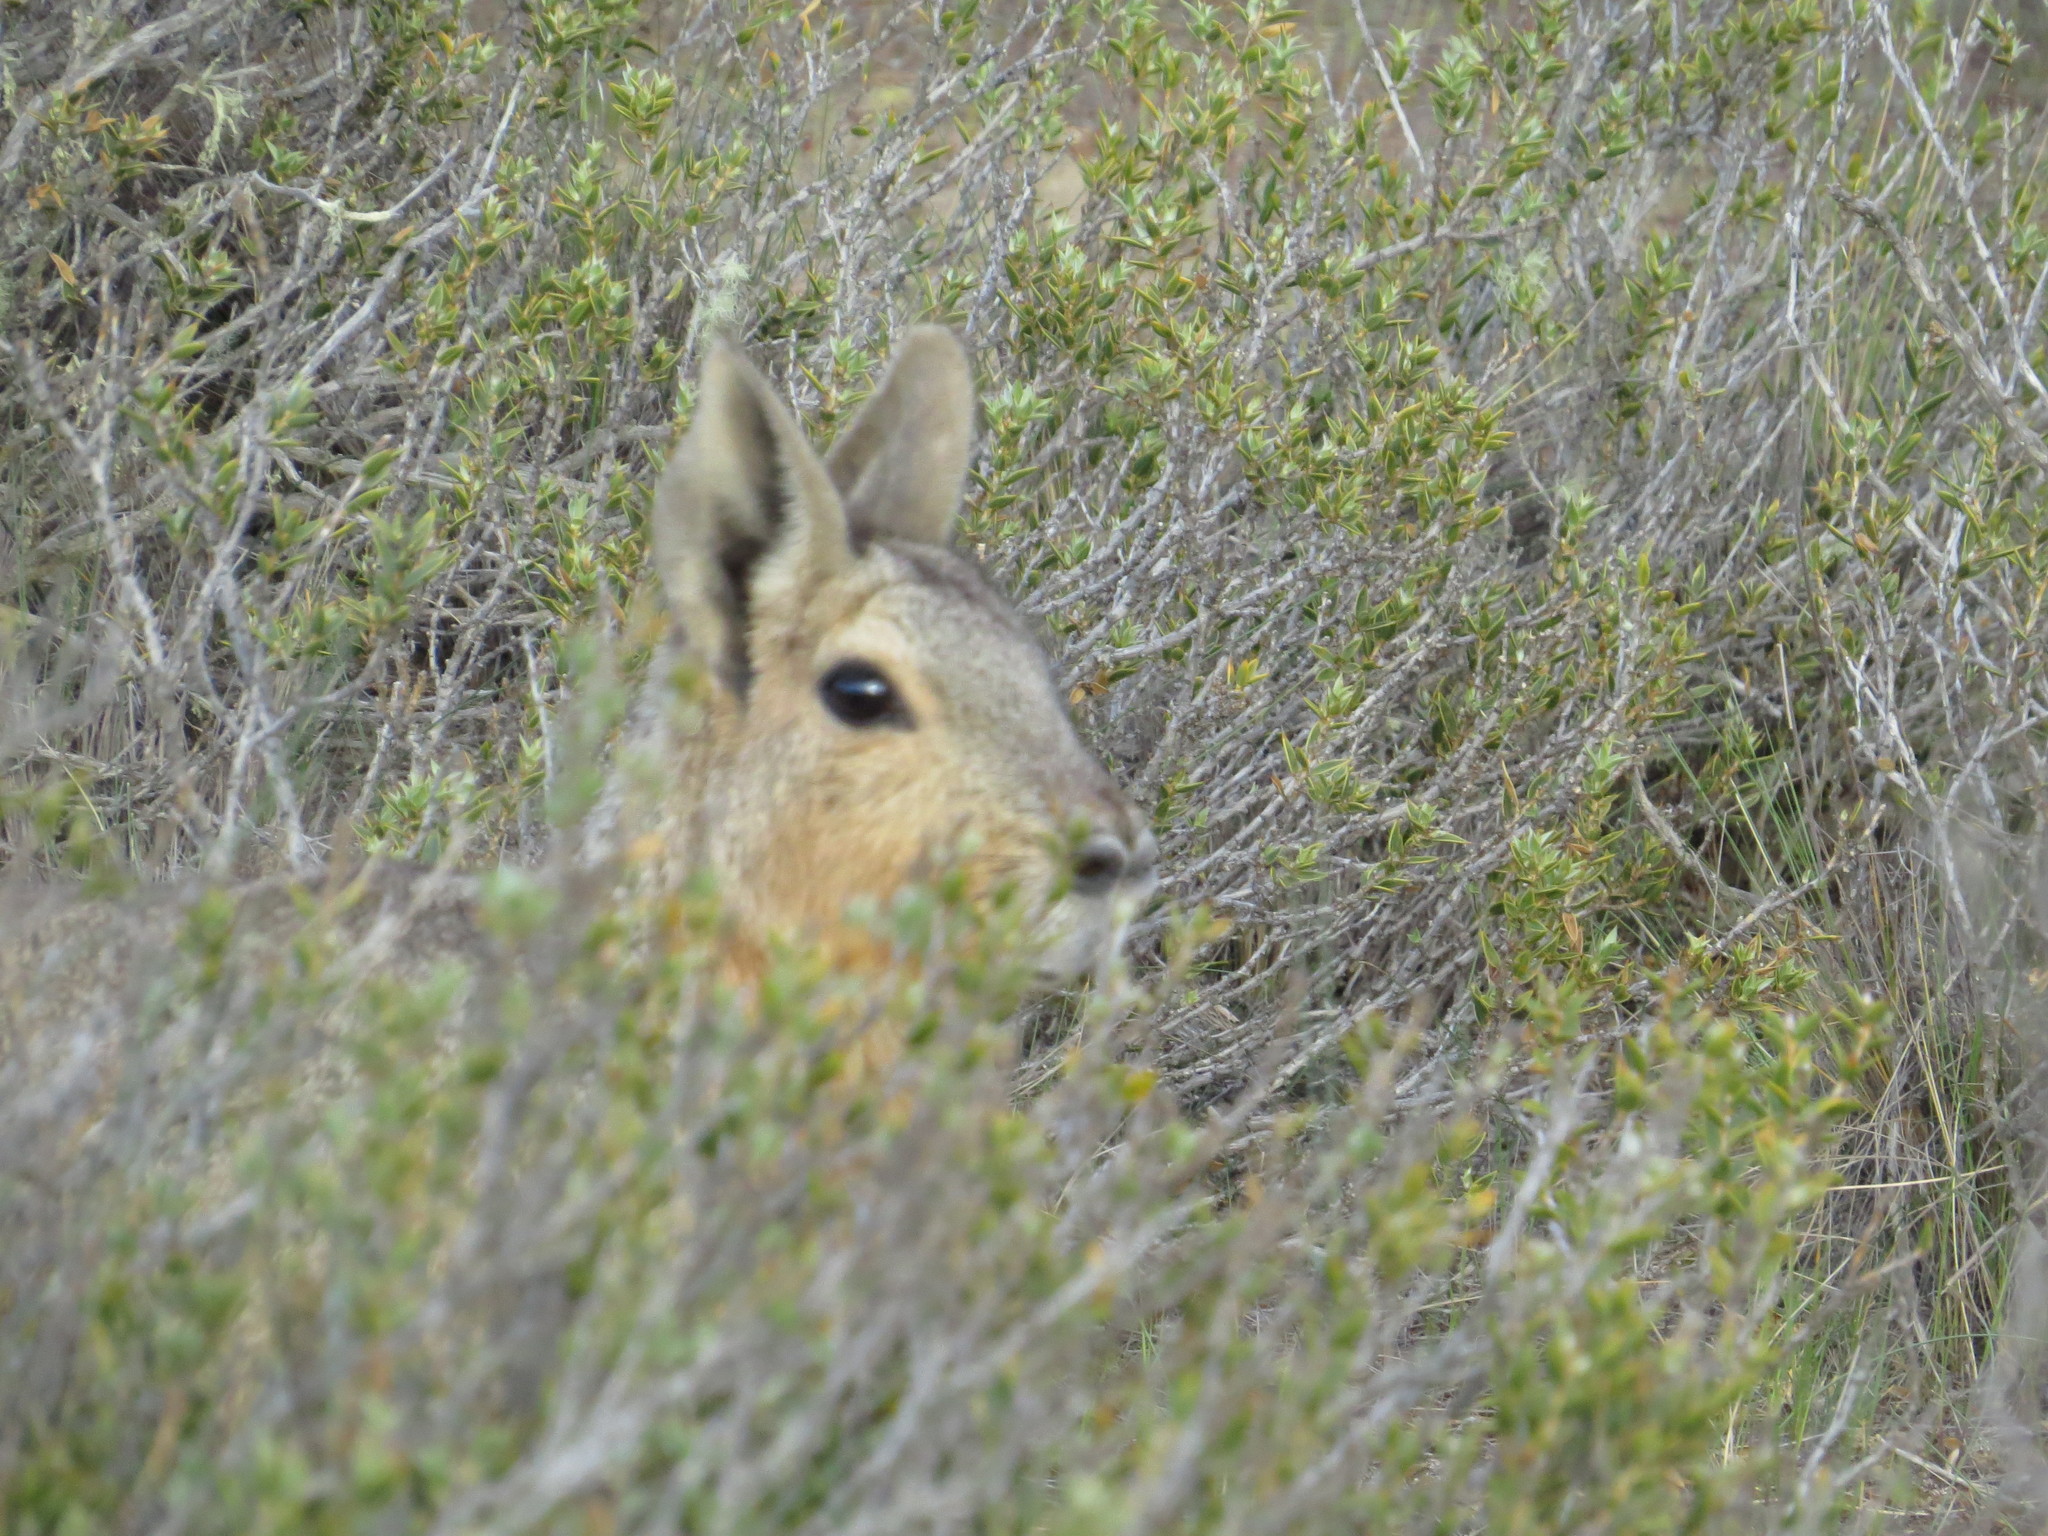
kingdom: Animalia
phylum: Chordata
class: Mammalia
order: Rodentia
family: Caviidae
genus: Dolichotis
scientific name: Dolichotis patagonum
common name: Patagonian mara
